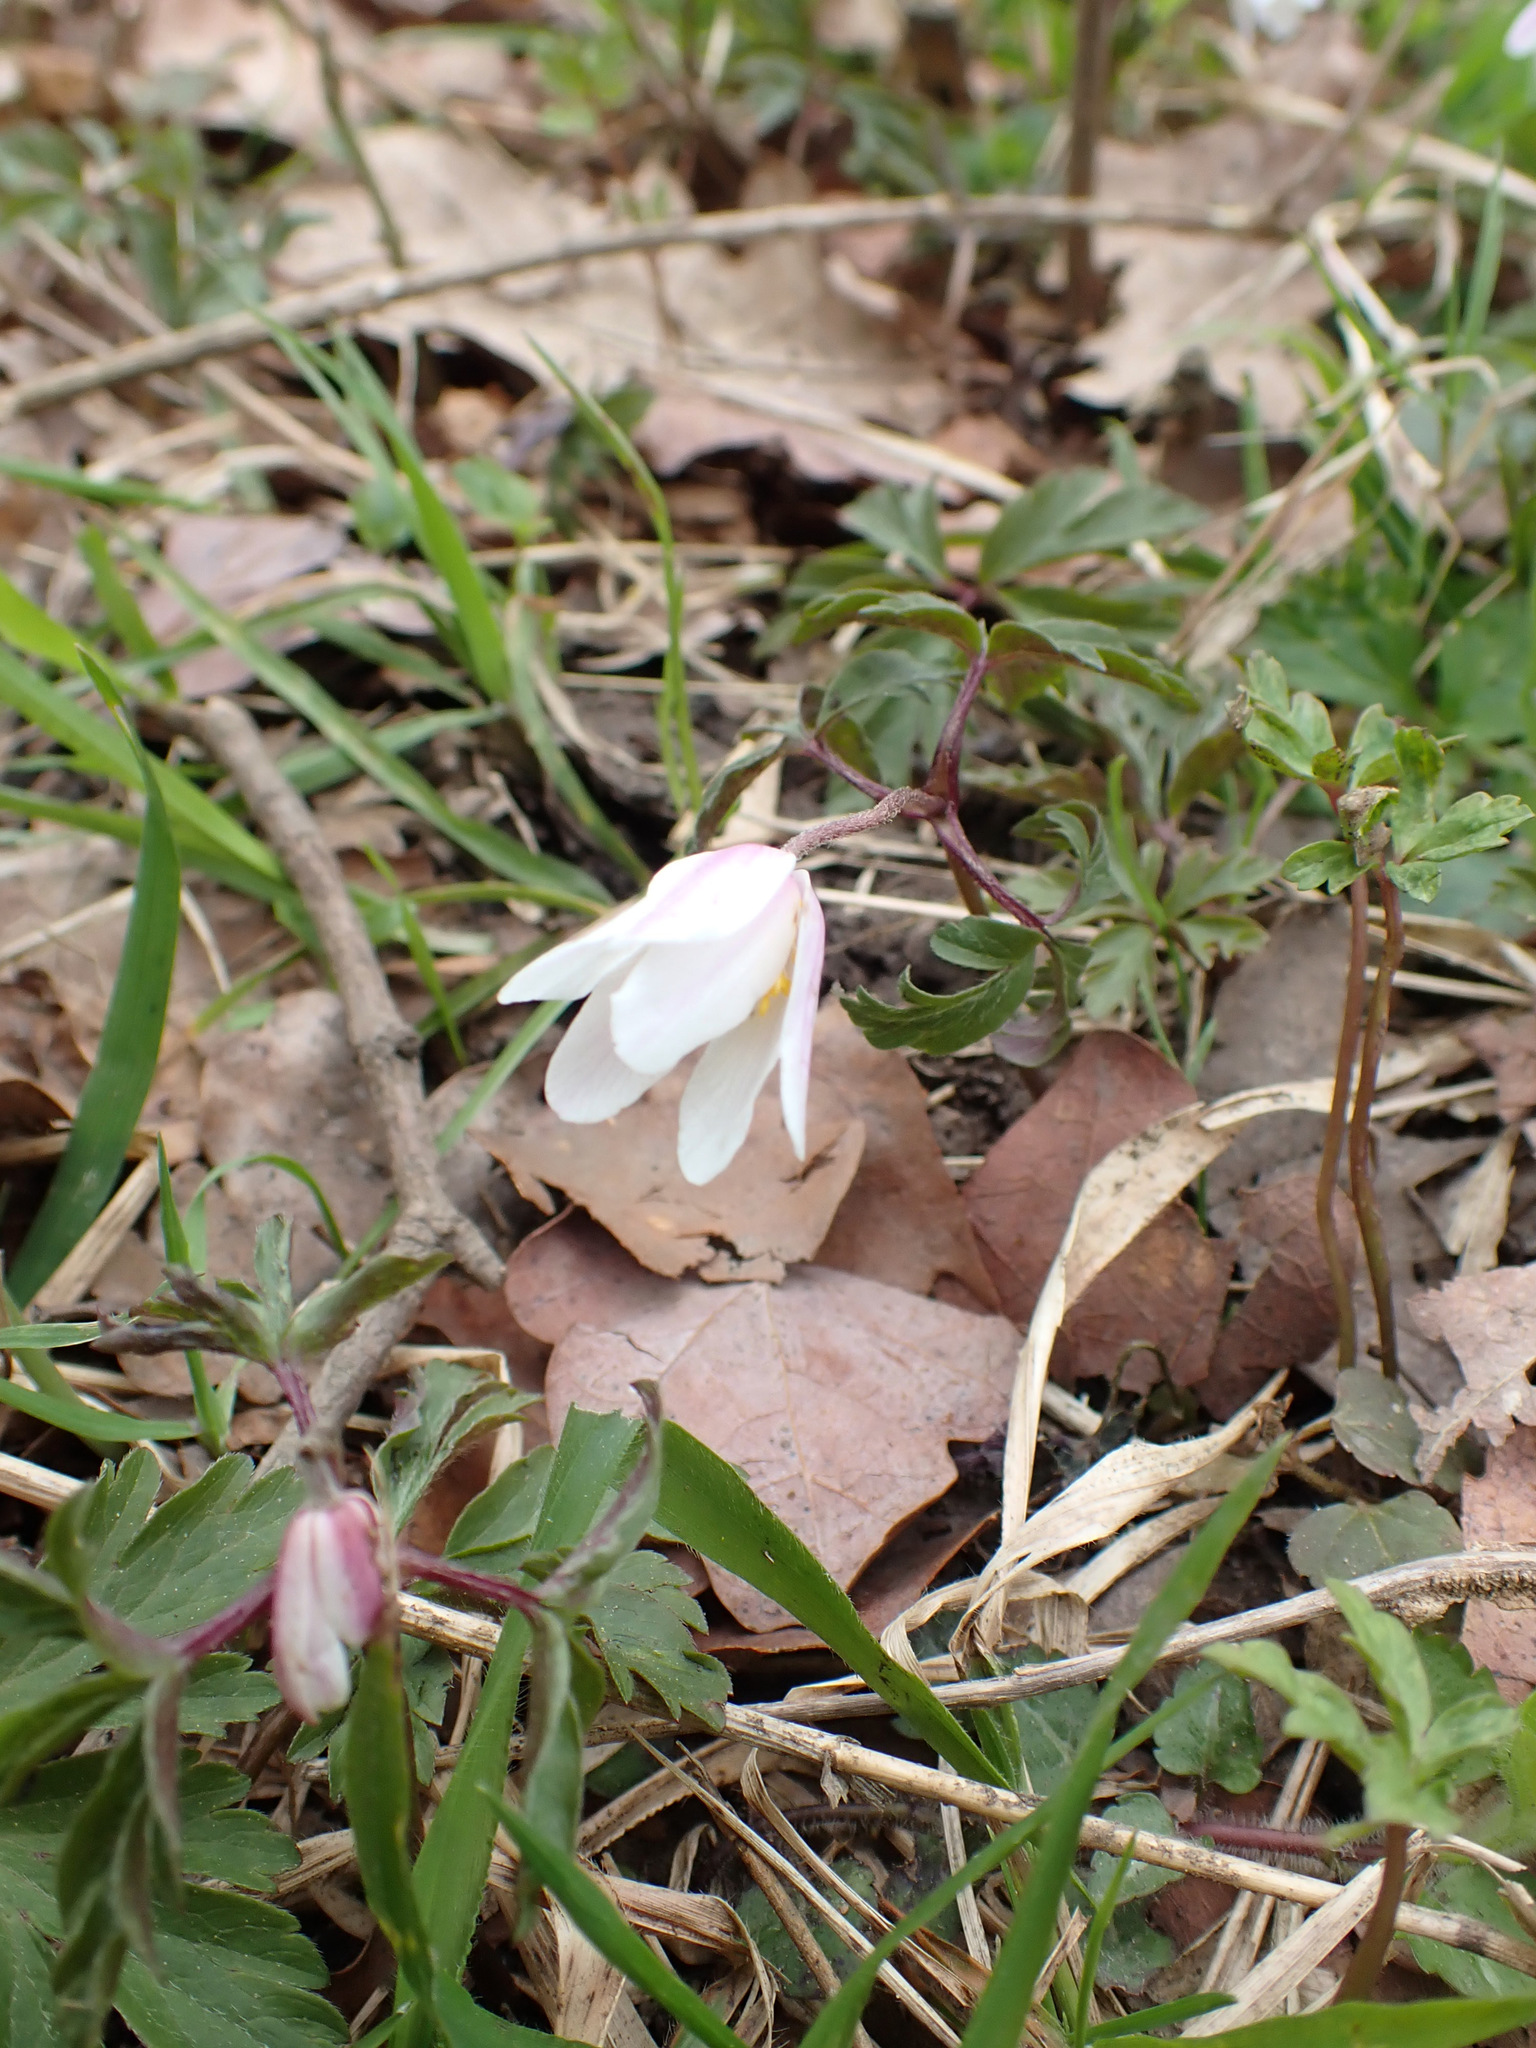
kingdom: Plantae
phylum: Tracheophyta
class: Magnoliopsida
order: Ranunculales
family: Ranunculaceae
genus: Anemone
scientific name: Anemone nemorosa
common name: Wood anemone
